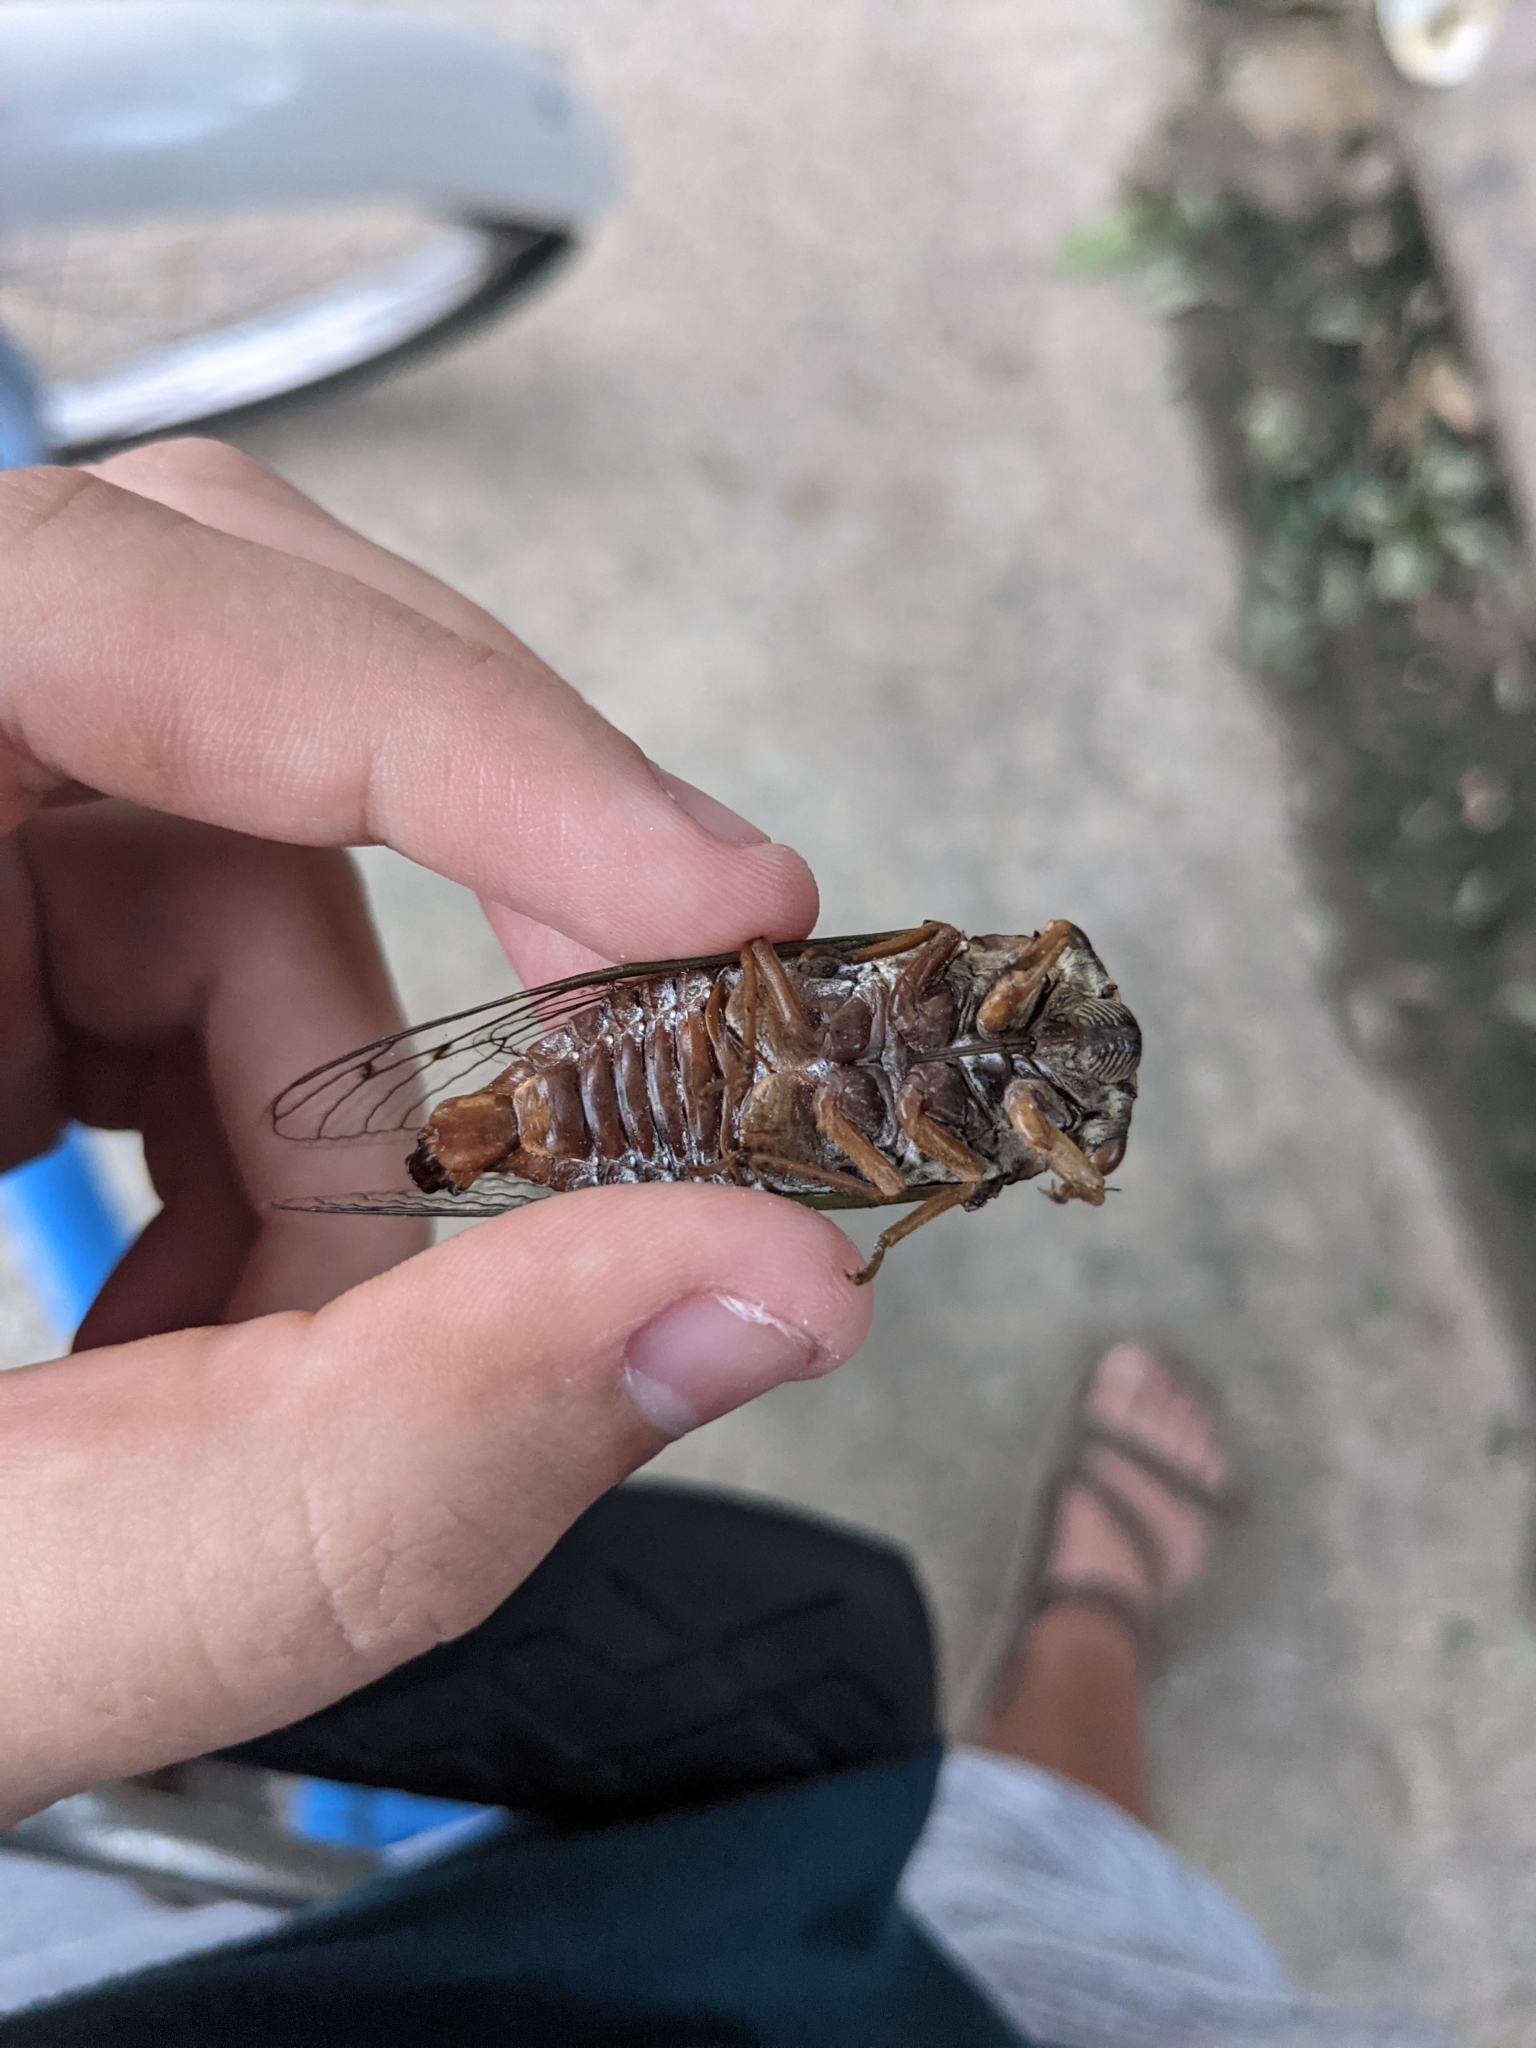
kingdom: Animalia
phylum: Arthropoda
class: Insecta
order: Hemiptera
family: Cicadidae
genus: Megatibicen
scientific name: Megatibicen resh
